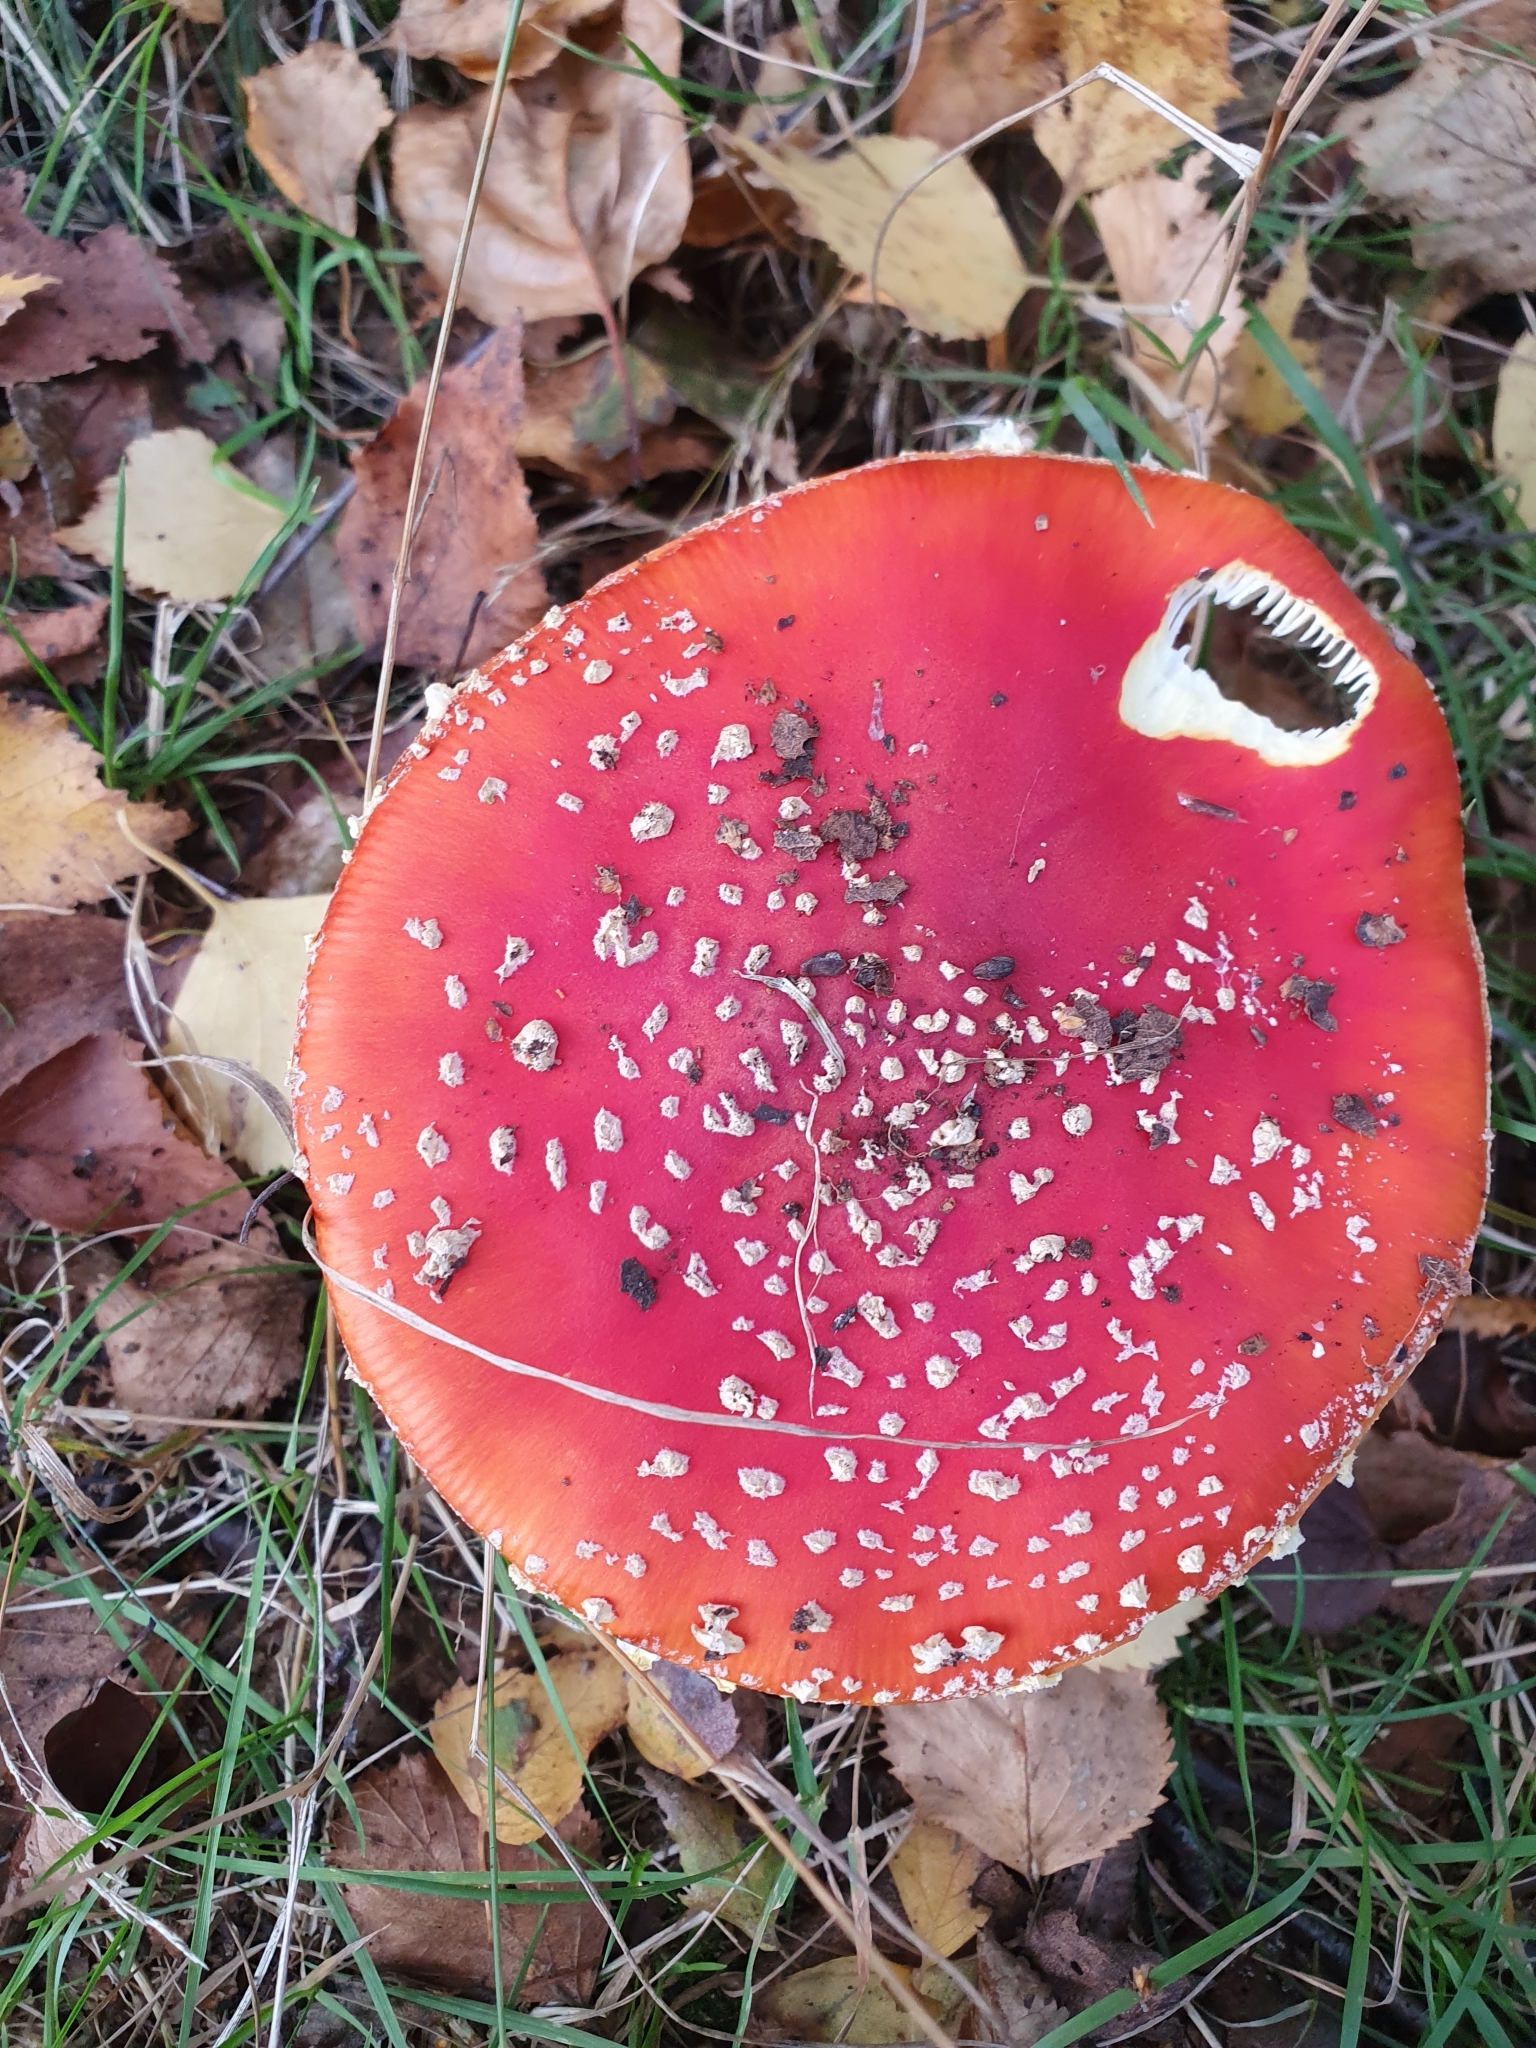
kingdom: Fungi
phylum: Basidiomycota
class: Agaricomycetes
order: Agaricales
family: Amanitaceae
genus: Amanita
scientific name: Amanita muscaria
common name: Fly agaric
